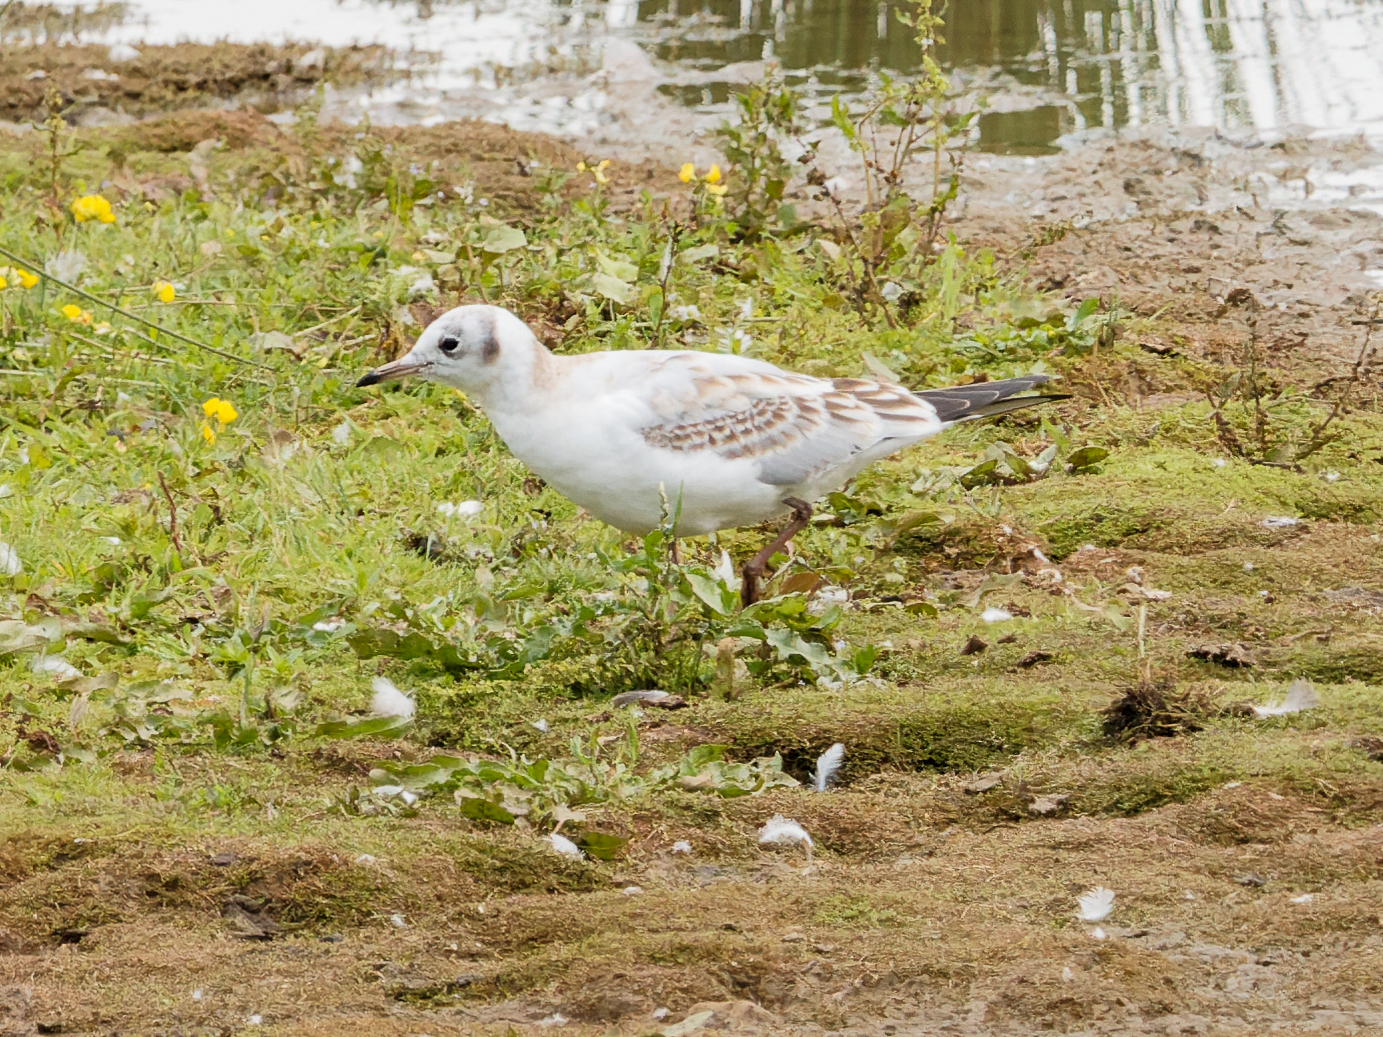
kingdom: Animalia
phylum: Chordata
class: Aves
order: Charadriiformes
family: Laridae
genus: Chroicocephalus
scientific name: Chroicocephalus ridibundus
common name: Black-headed gull
